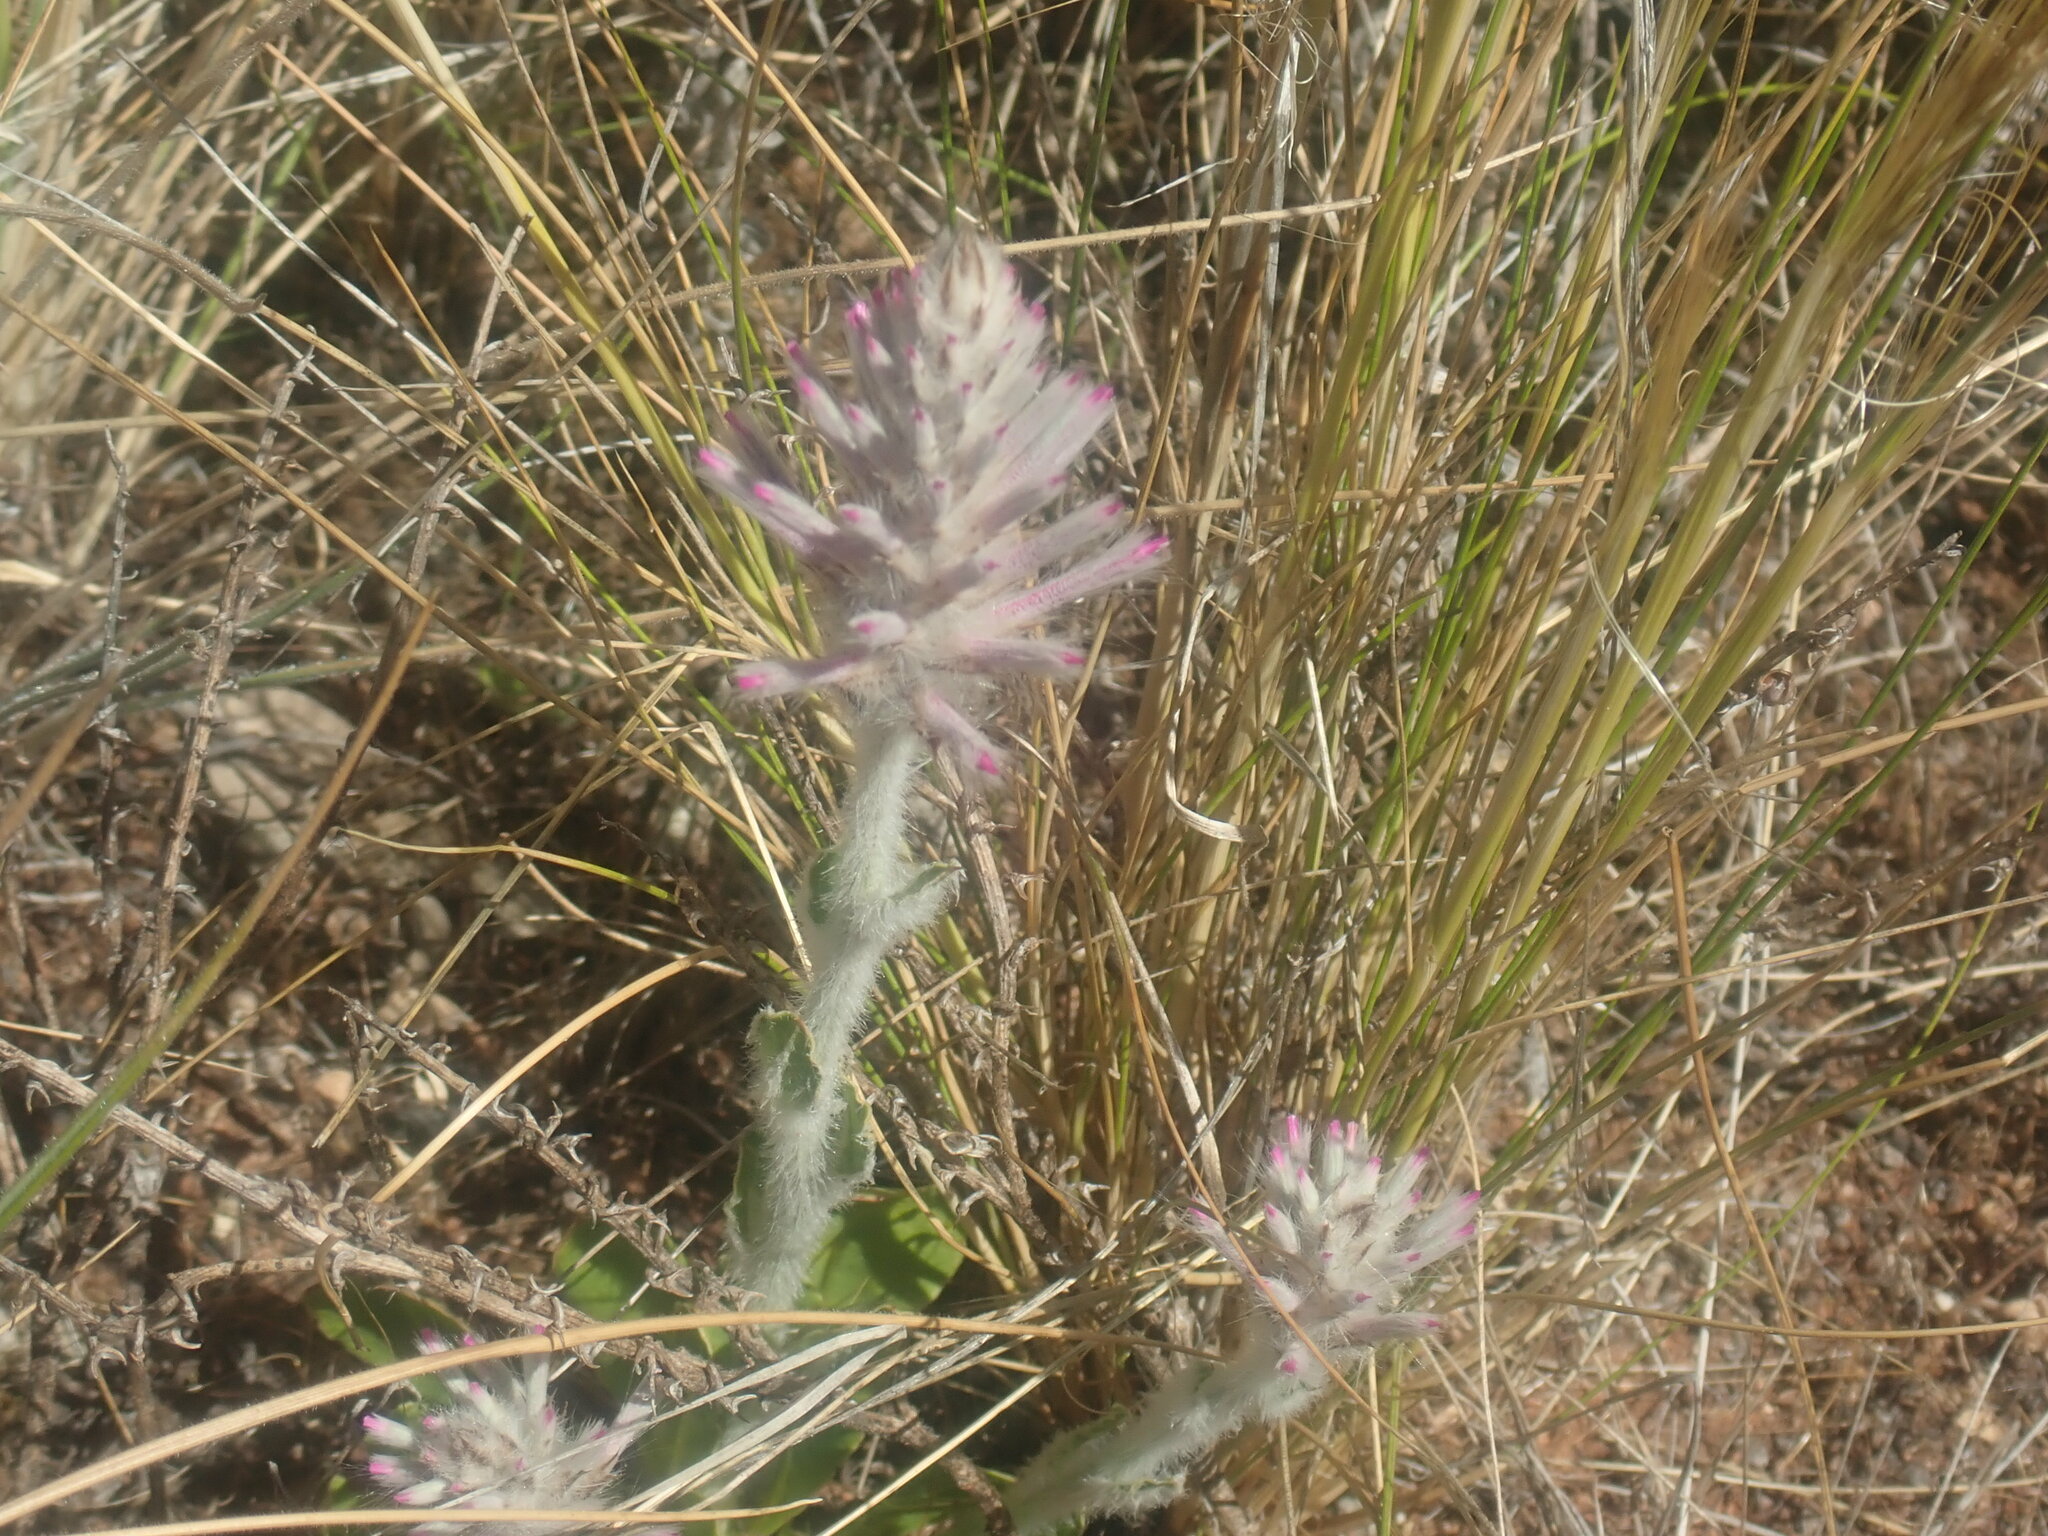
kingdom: Plantae
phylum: Tracheophyta
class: Magnoliopsida
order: Caryophyllales
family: Amaranthaceae
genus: Ptilotus
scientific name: Ptilotus exaltatus
